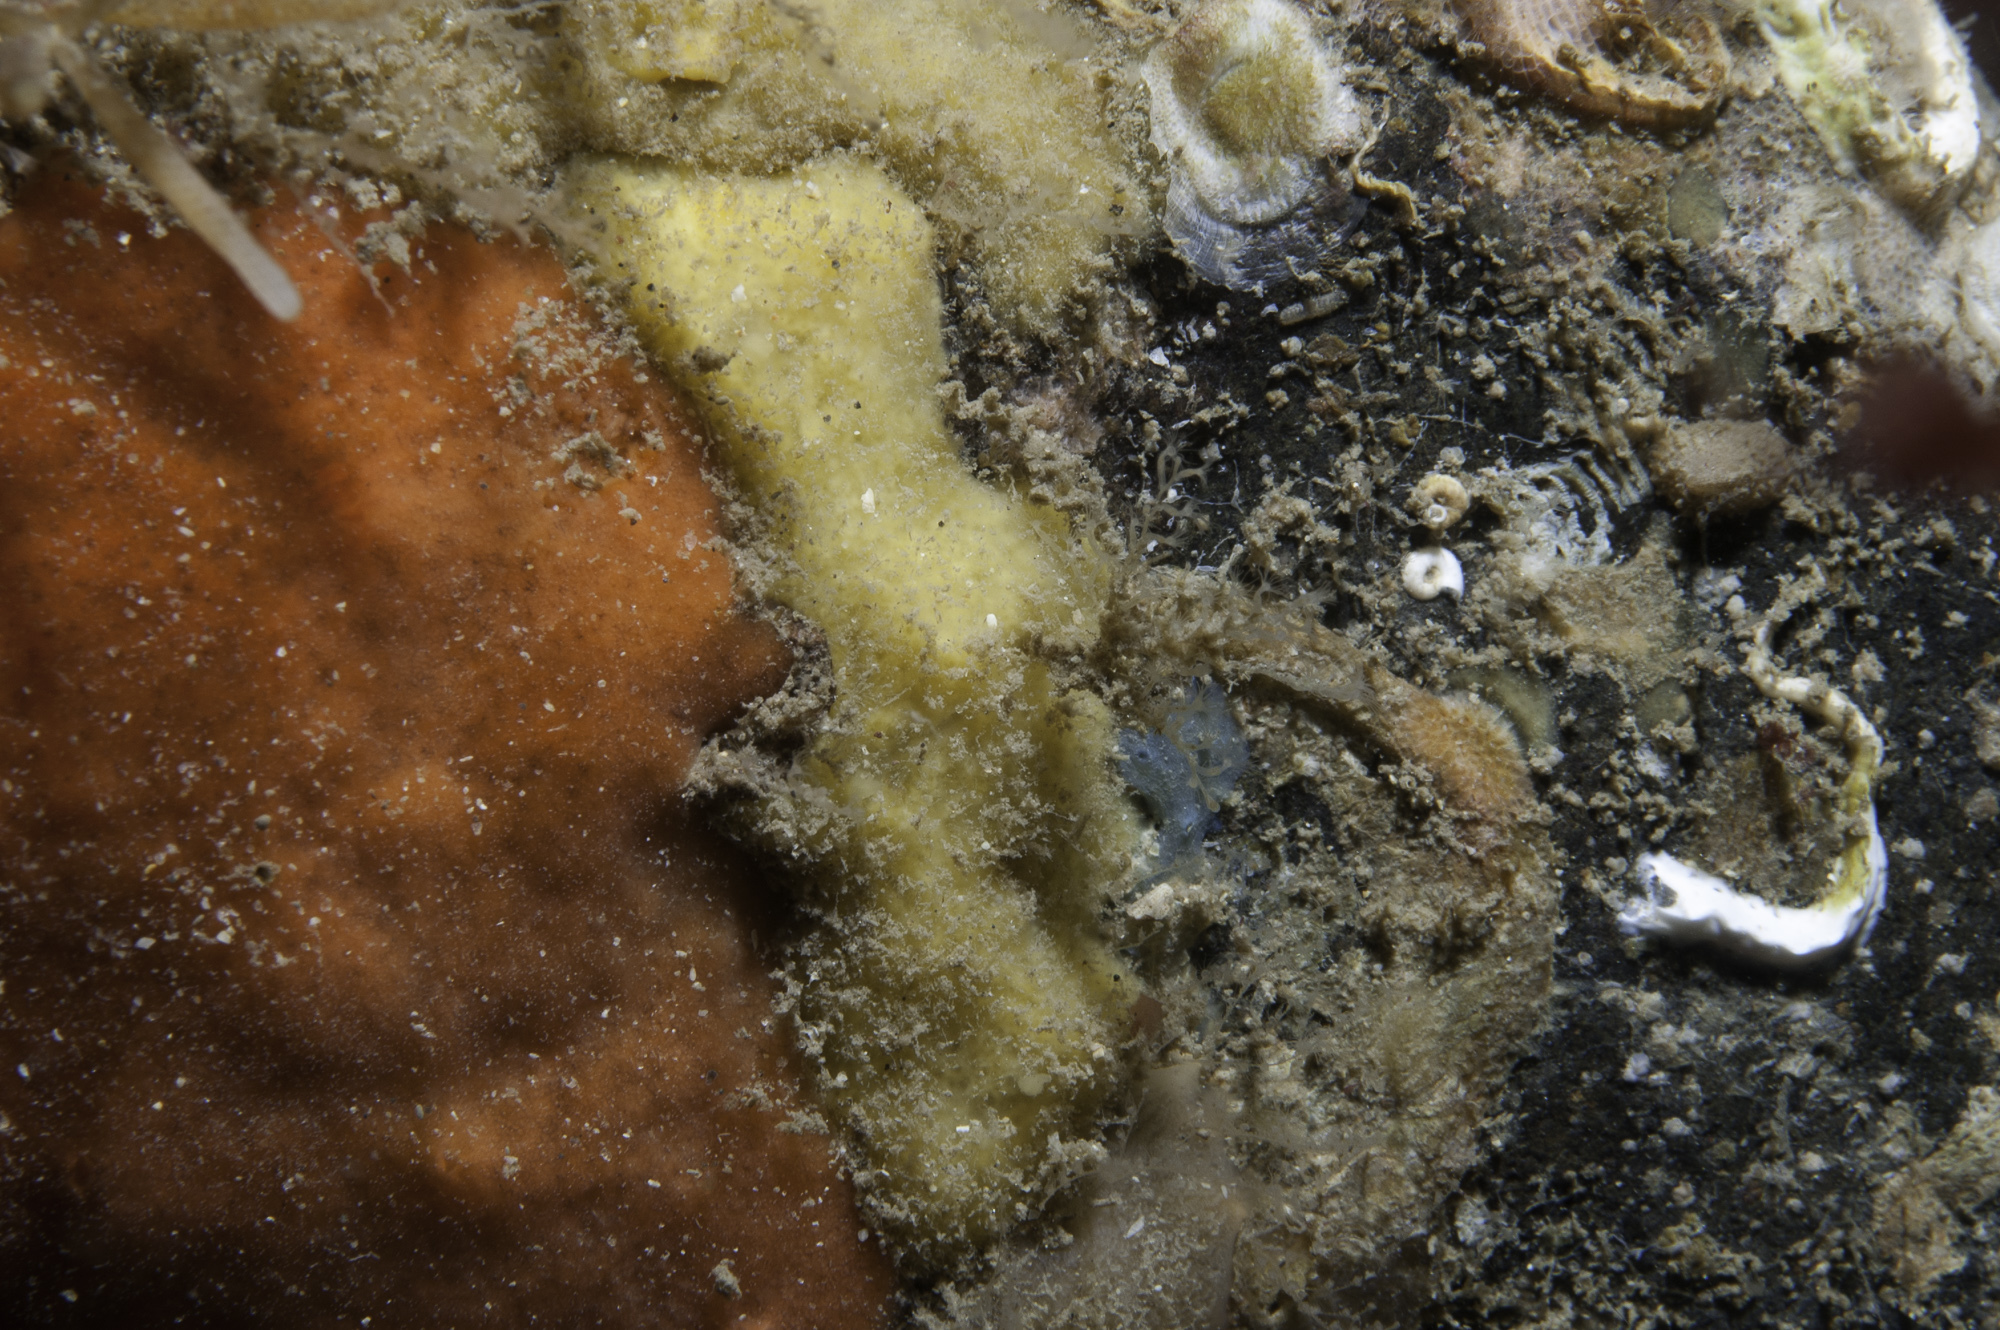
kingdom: Animalia
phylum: Porifera
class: Demospongiae
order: Axinellida
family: Stelligeridae
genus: Paratimea
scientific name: Paratimea loennbergi
